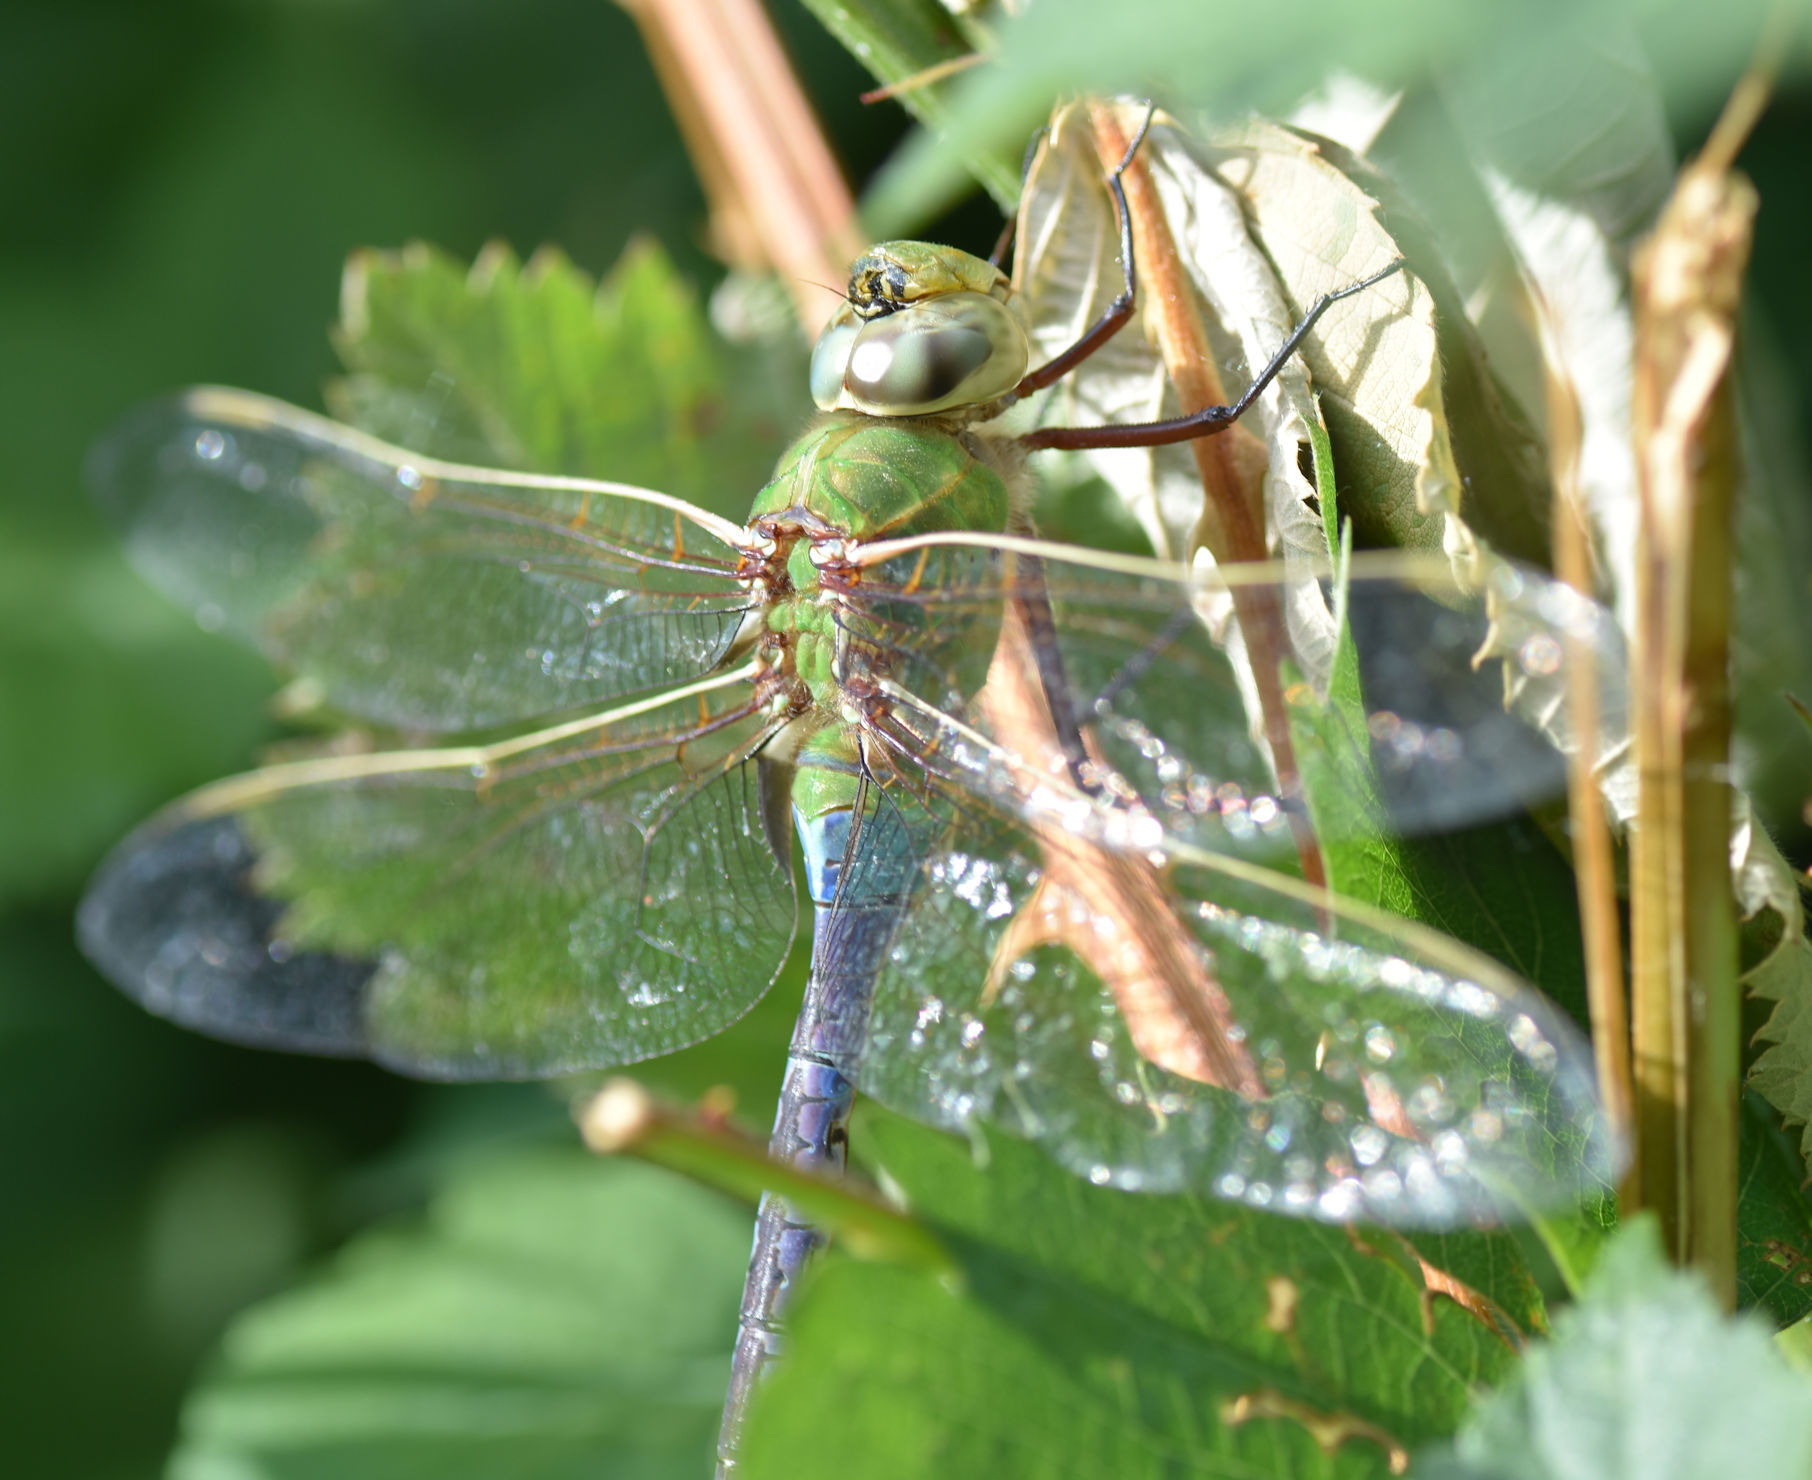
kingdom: Animalia
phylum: Arthropoda
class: Insecta
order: Odonata
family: Aeshnidae
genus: Anax
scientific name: Anax junius
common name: Common green darner
